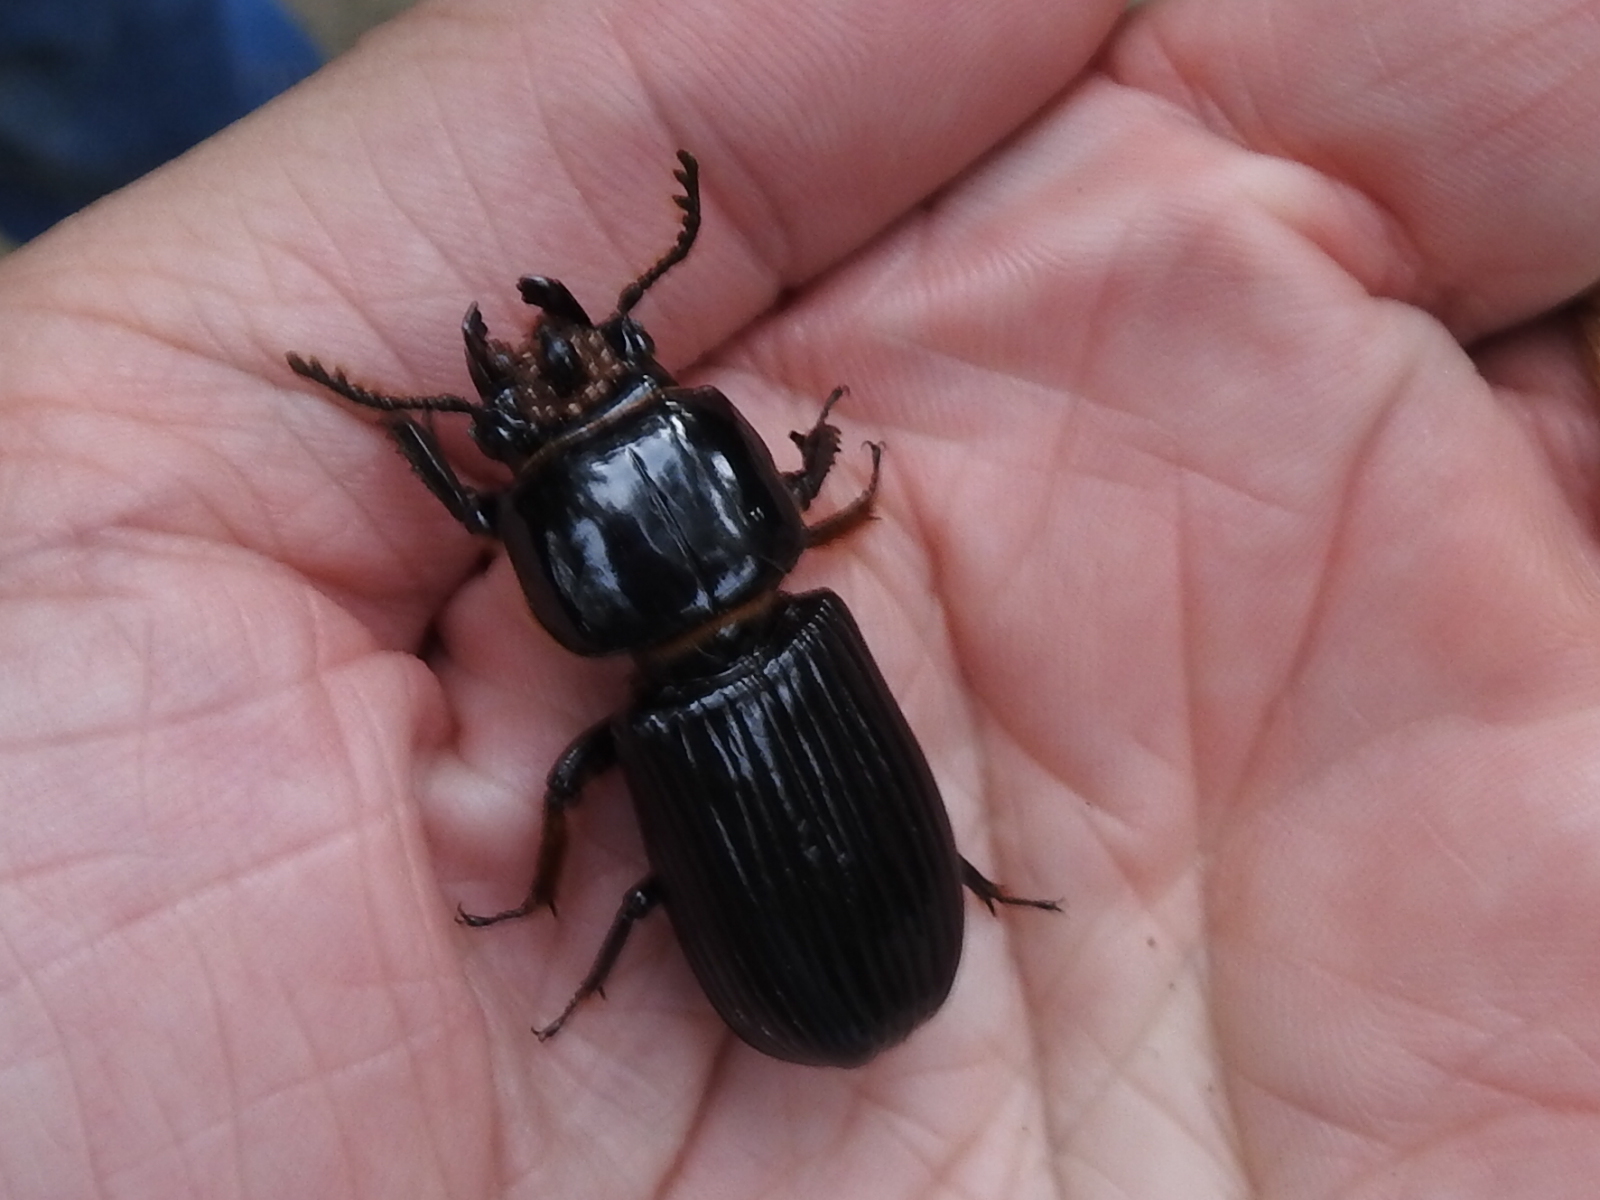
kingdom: Animalia
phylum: Arthropoda
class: Insecta
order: Coleoptera
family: Passalidae
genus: Odontotaenius
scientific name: Odontotaenius disjunctus
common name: Patent leather beetle
